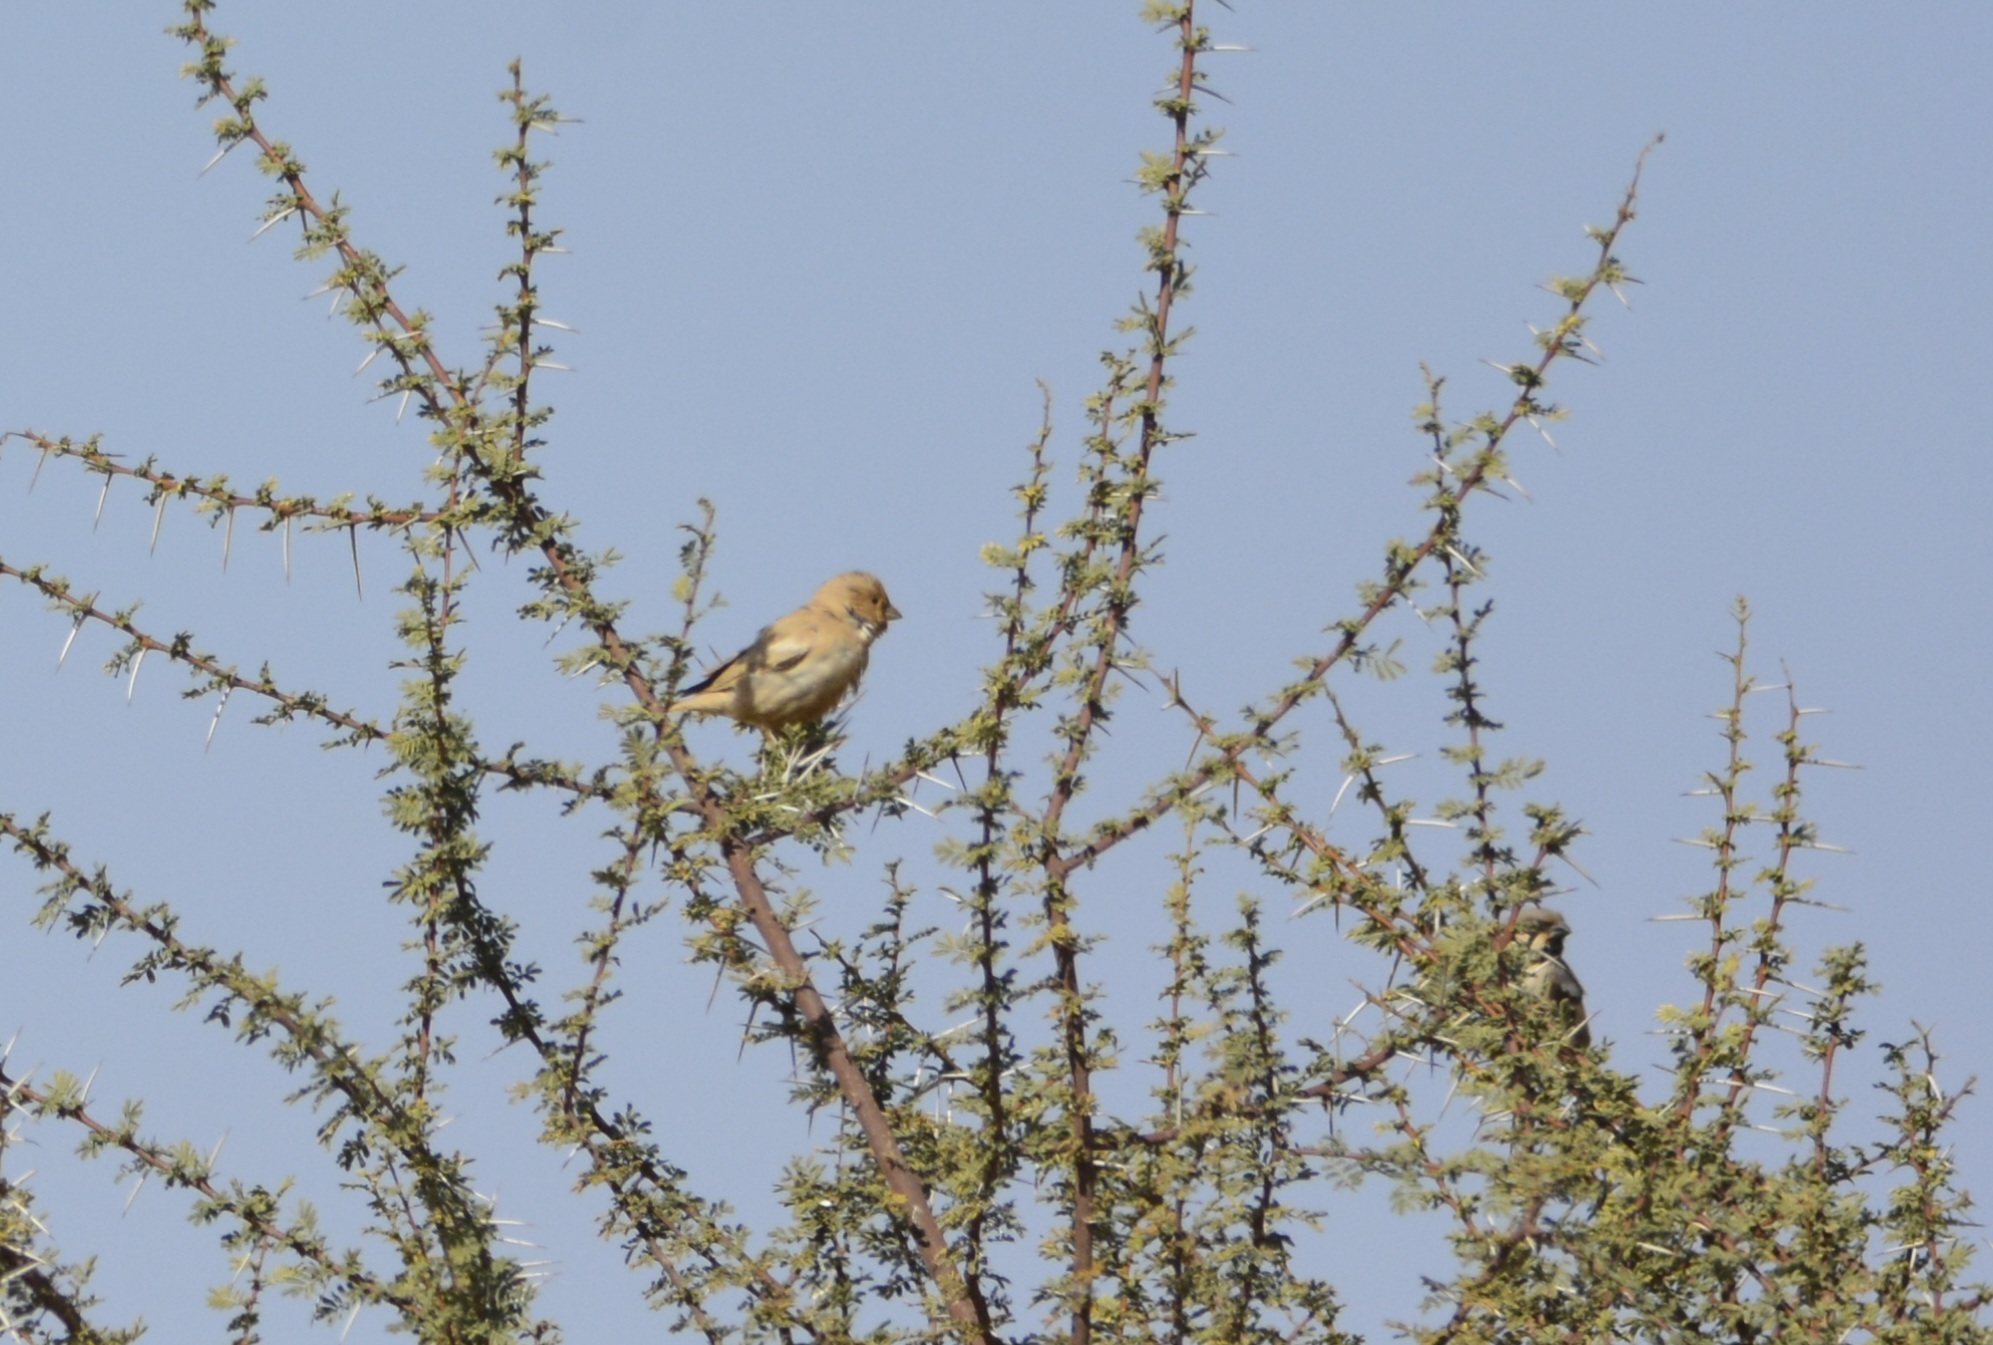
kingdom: Animalia
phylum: Chordata
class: Aves
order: Passeriformes
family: Passeridae
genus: Passer
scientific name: Passer simplex
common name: Desert sparrow
